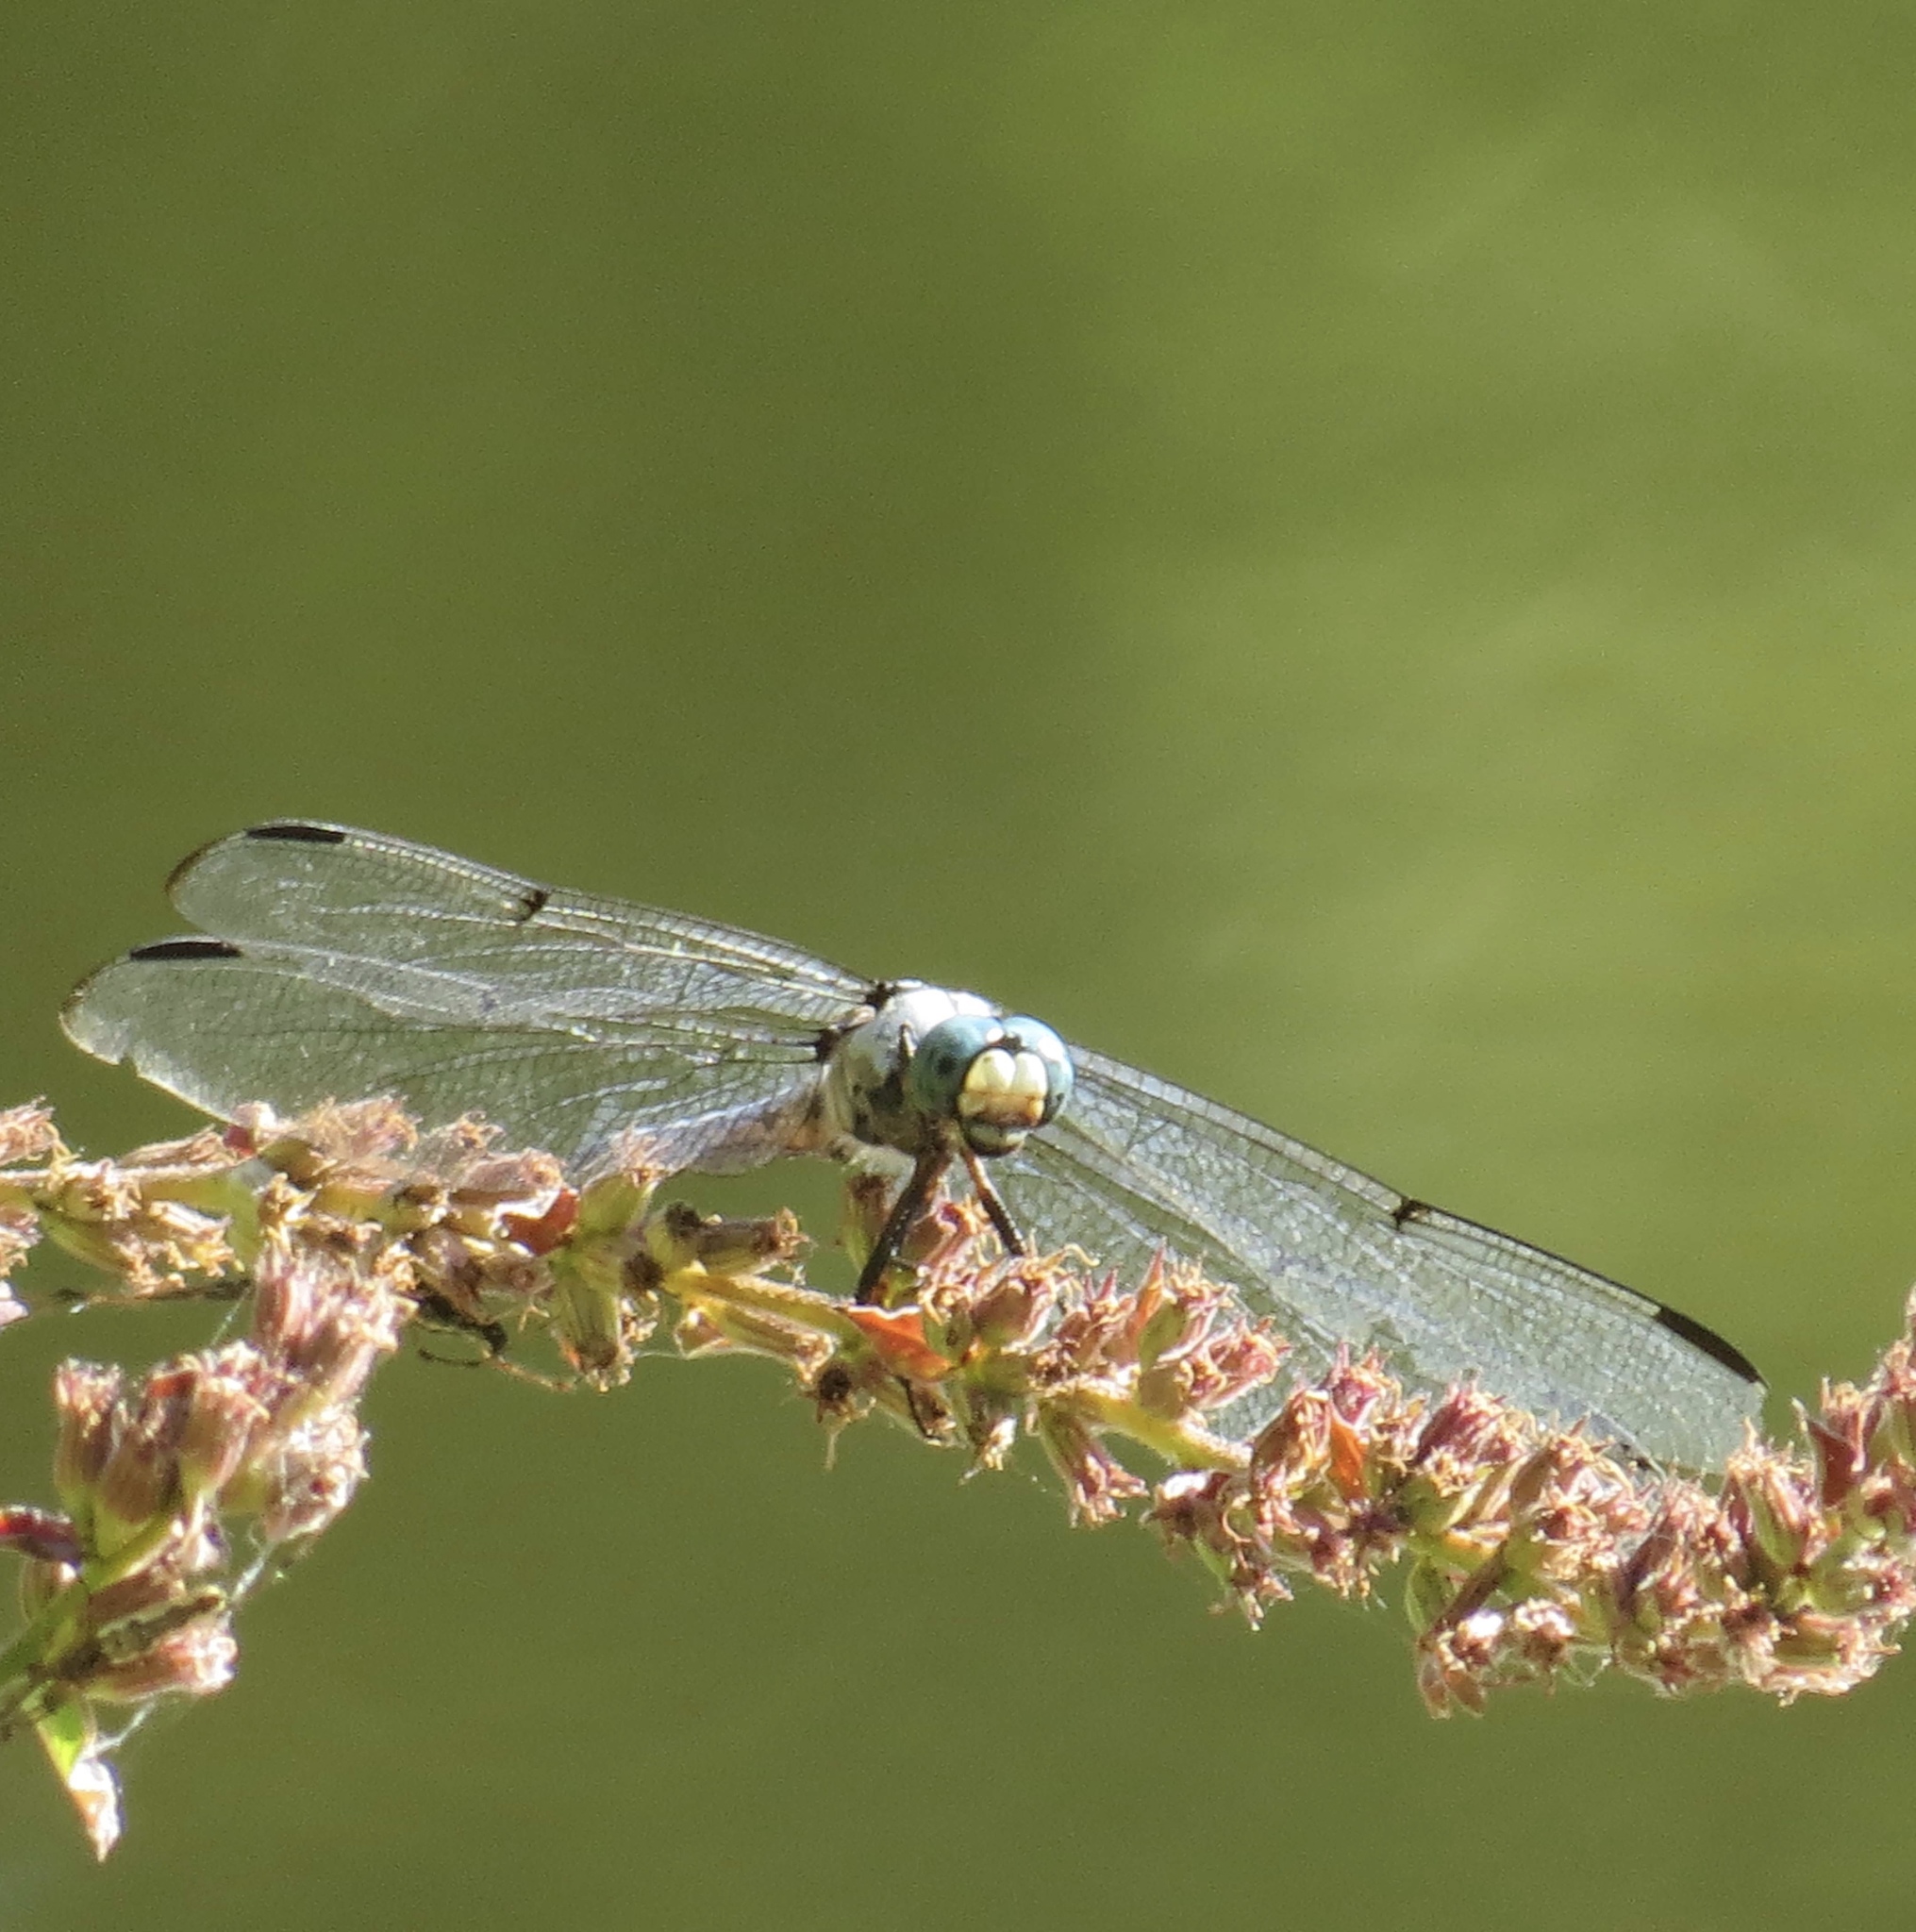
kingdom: Animalia
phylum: Arthropoda
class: Insecta
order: Odonata
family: Libellulidae
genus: Libellula
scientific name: Libellula vibrans
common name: Great blue skimmer
